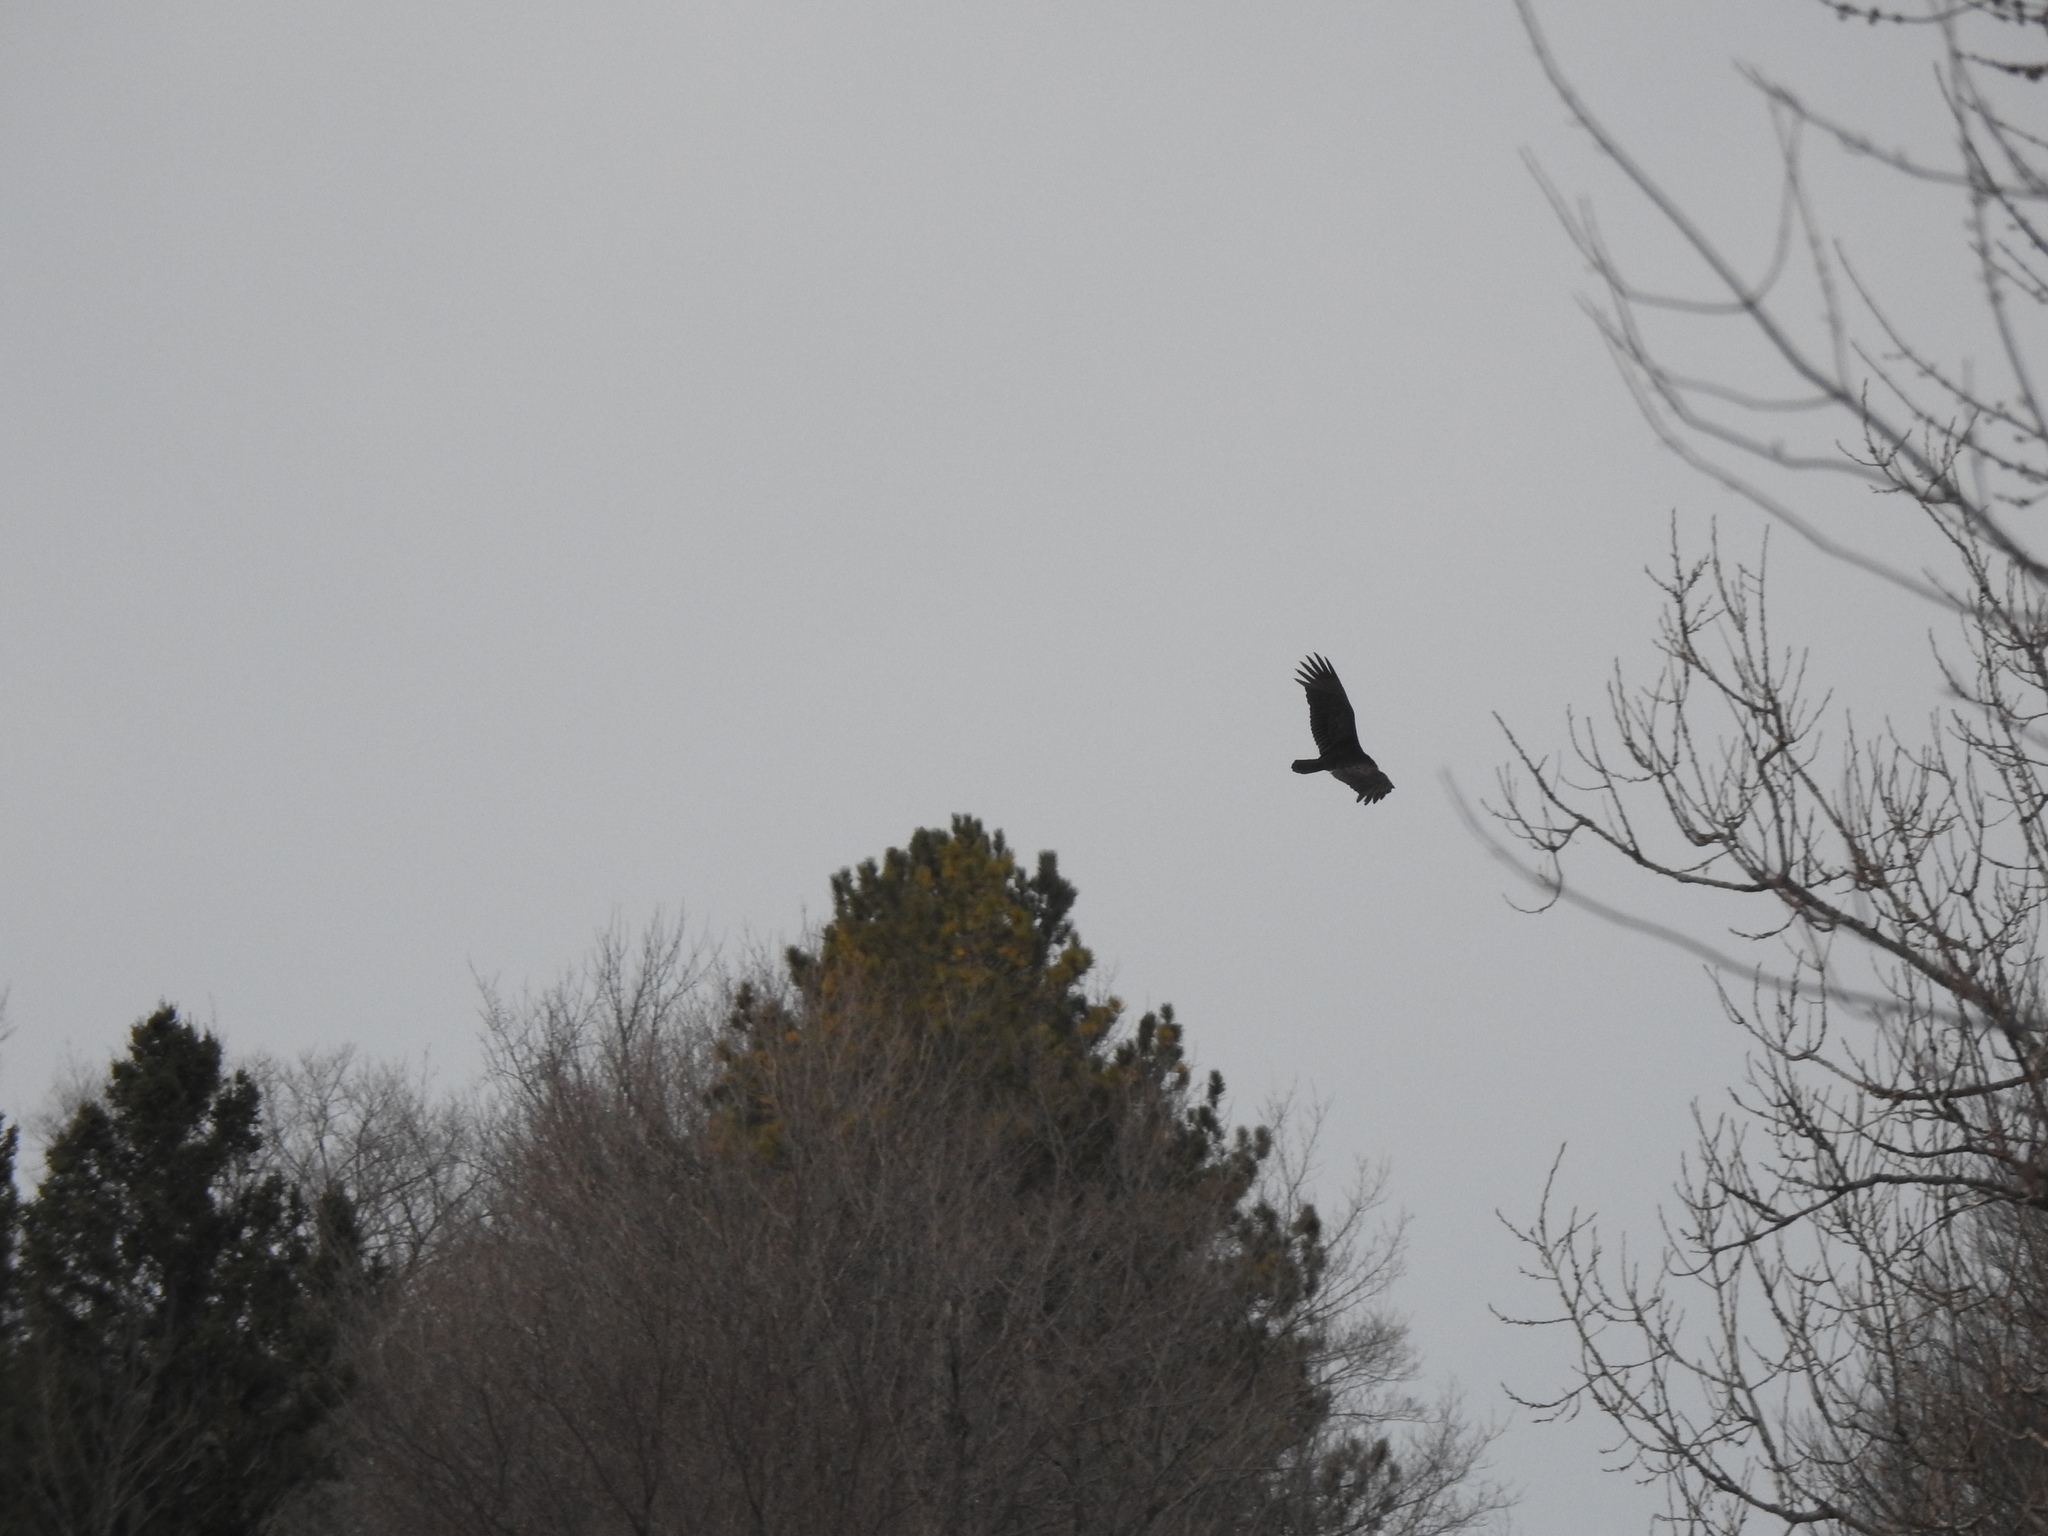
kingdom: Animalia
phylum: Chordata
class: Aves
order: Accipitriformes
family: Cathartidae
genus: Cathartes
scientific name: Cathartes aura
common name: Turkey vulture
